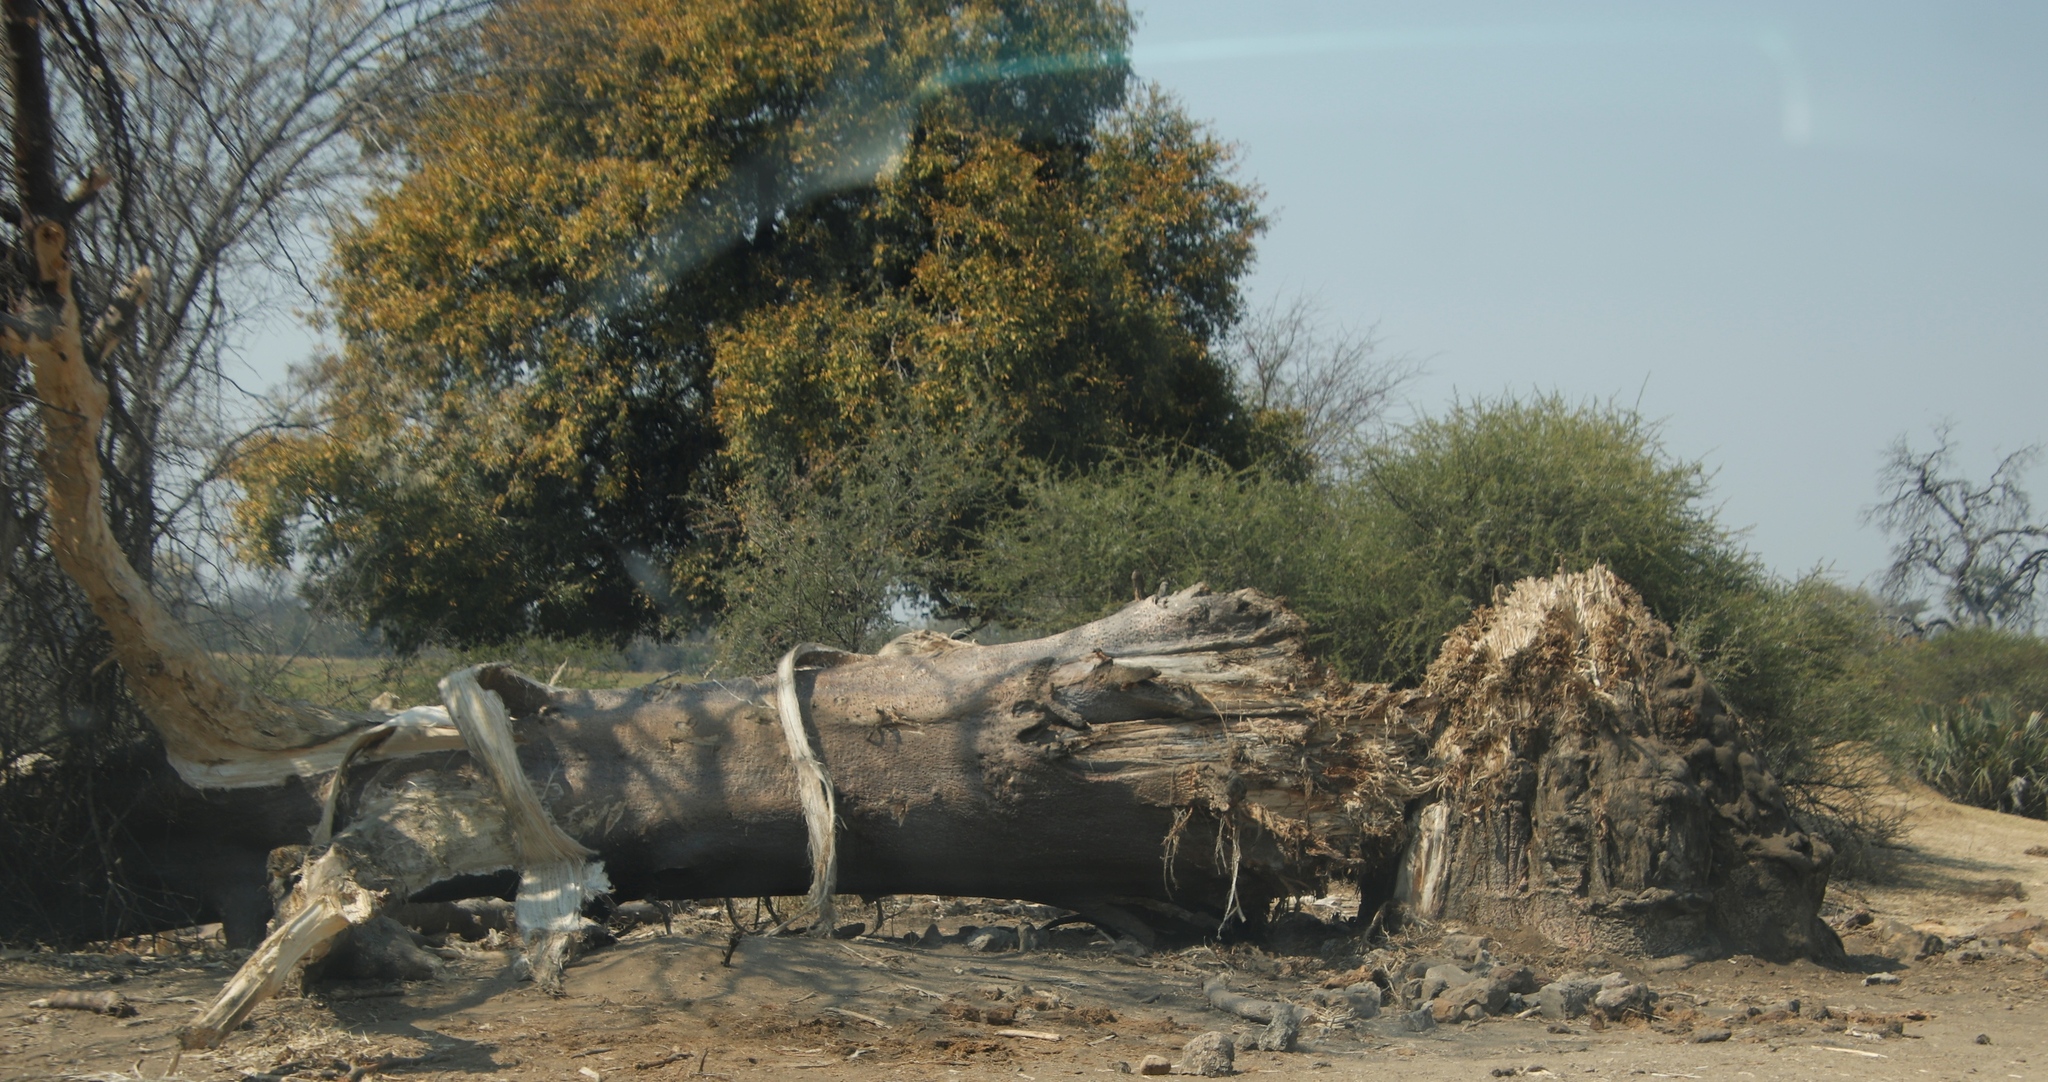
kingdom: Animalia
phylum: Chordata
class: Mammalia
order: Proboscidea
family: Elephantidae
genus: Loxodonta
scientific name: Loxodonta africana
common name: African elephant
